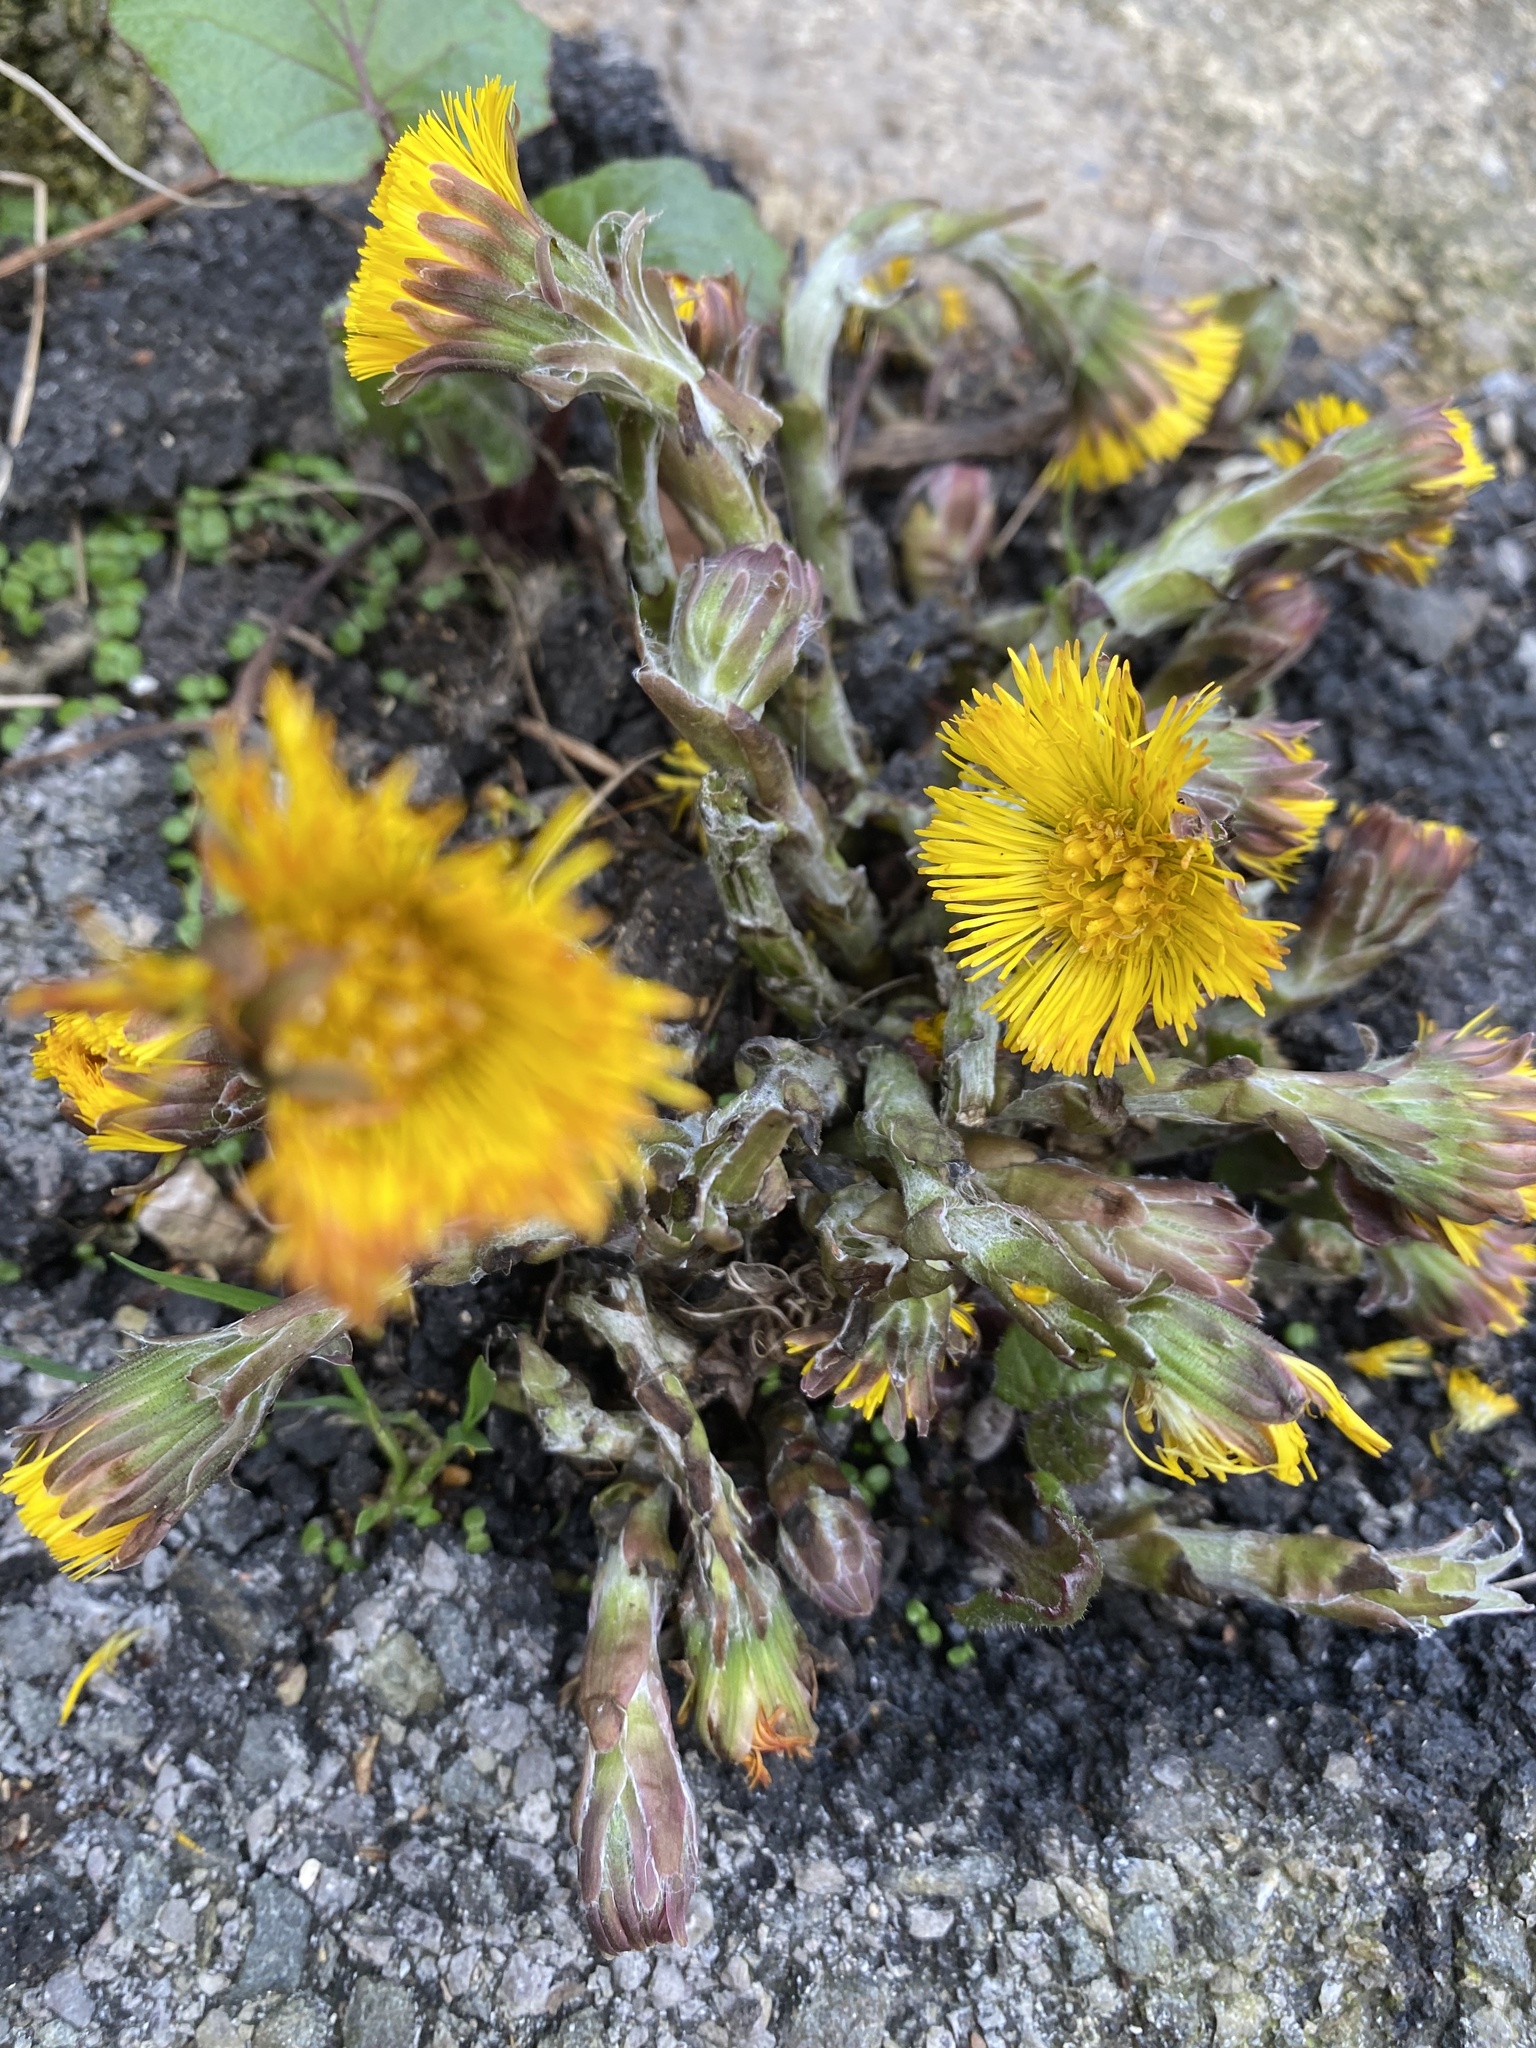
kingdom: Plantae
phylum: Tracheophyta
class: Magnoliopsida
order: Asterales
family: Asteraceae
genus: Tussilago
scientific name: Tussilago farfara
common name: Coltsfoot
